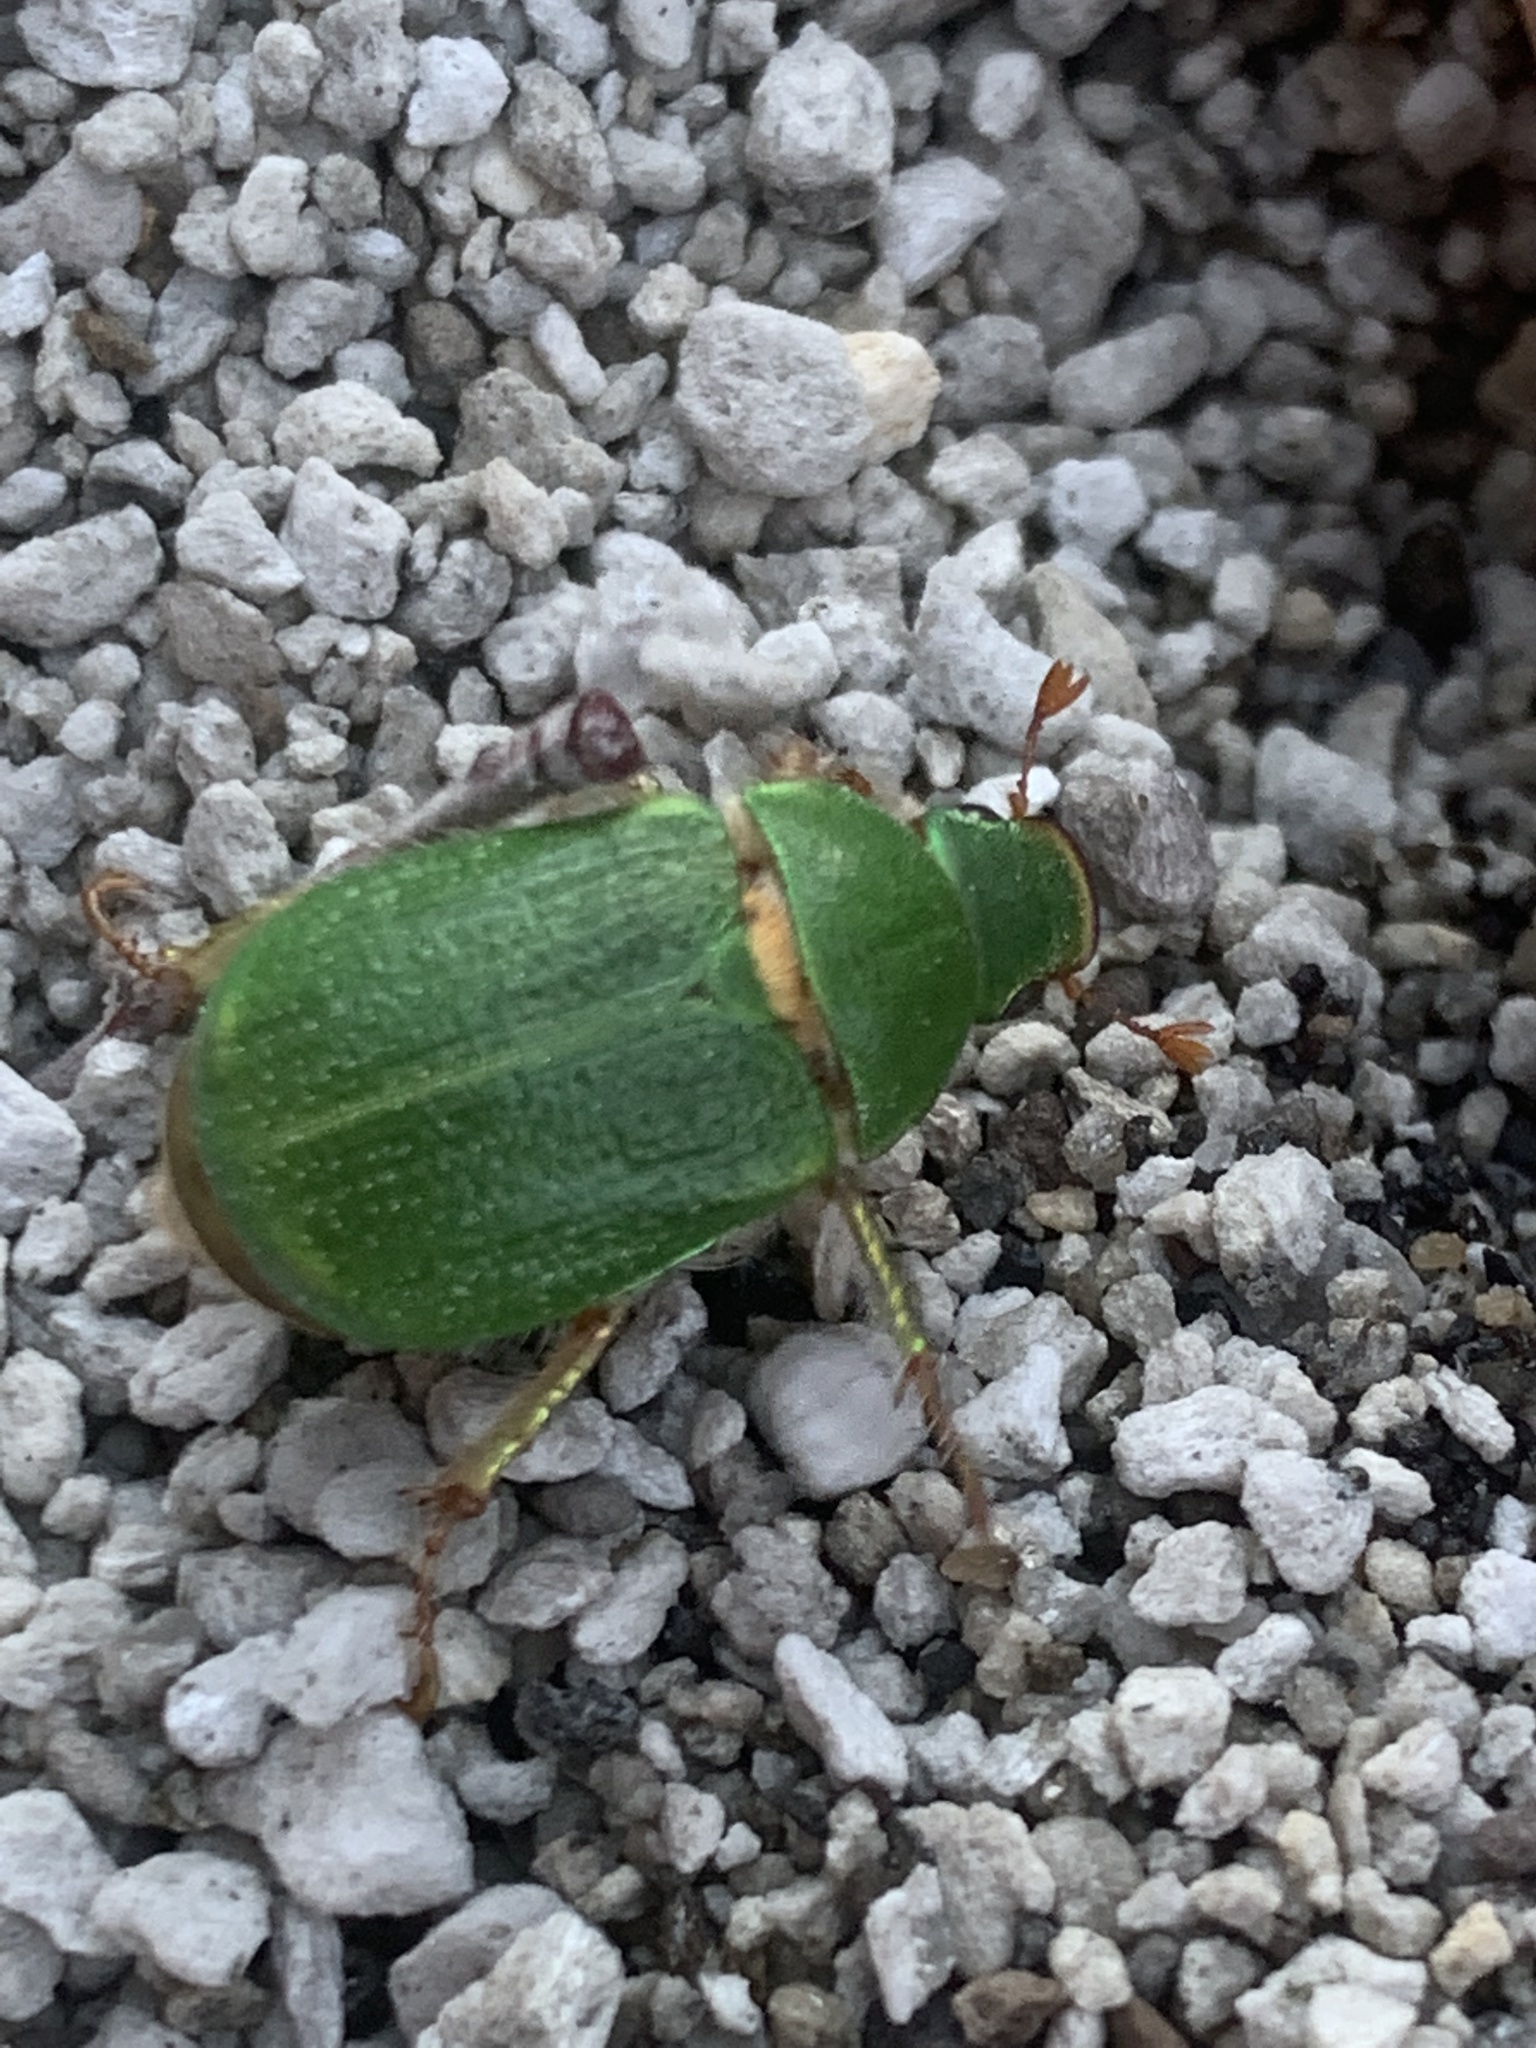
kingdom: Animalia
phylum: Arthropoda
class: Insecta
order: Coleoptera
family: Scarabaeidae
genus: Hylamorpha
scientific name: Hylamorpha elegans
